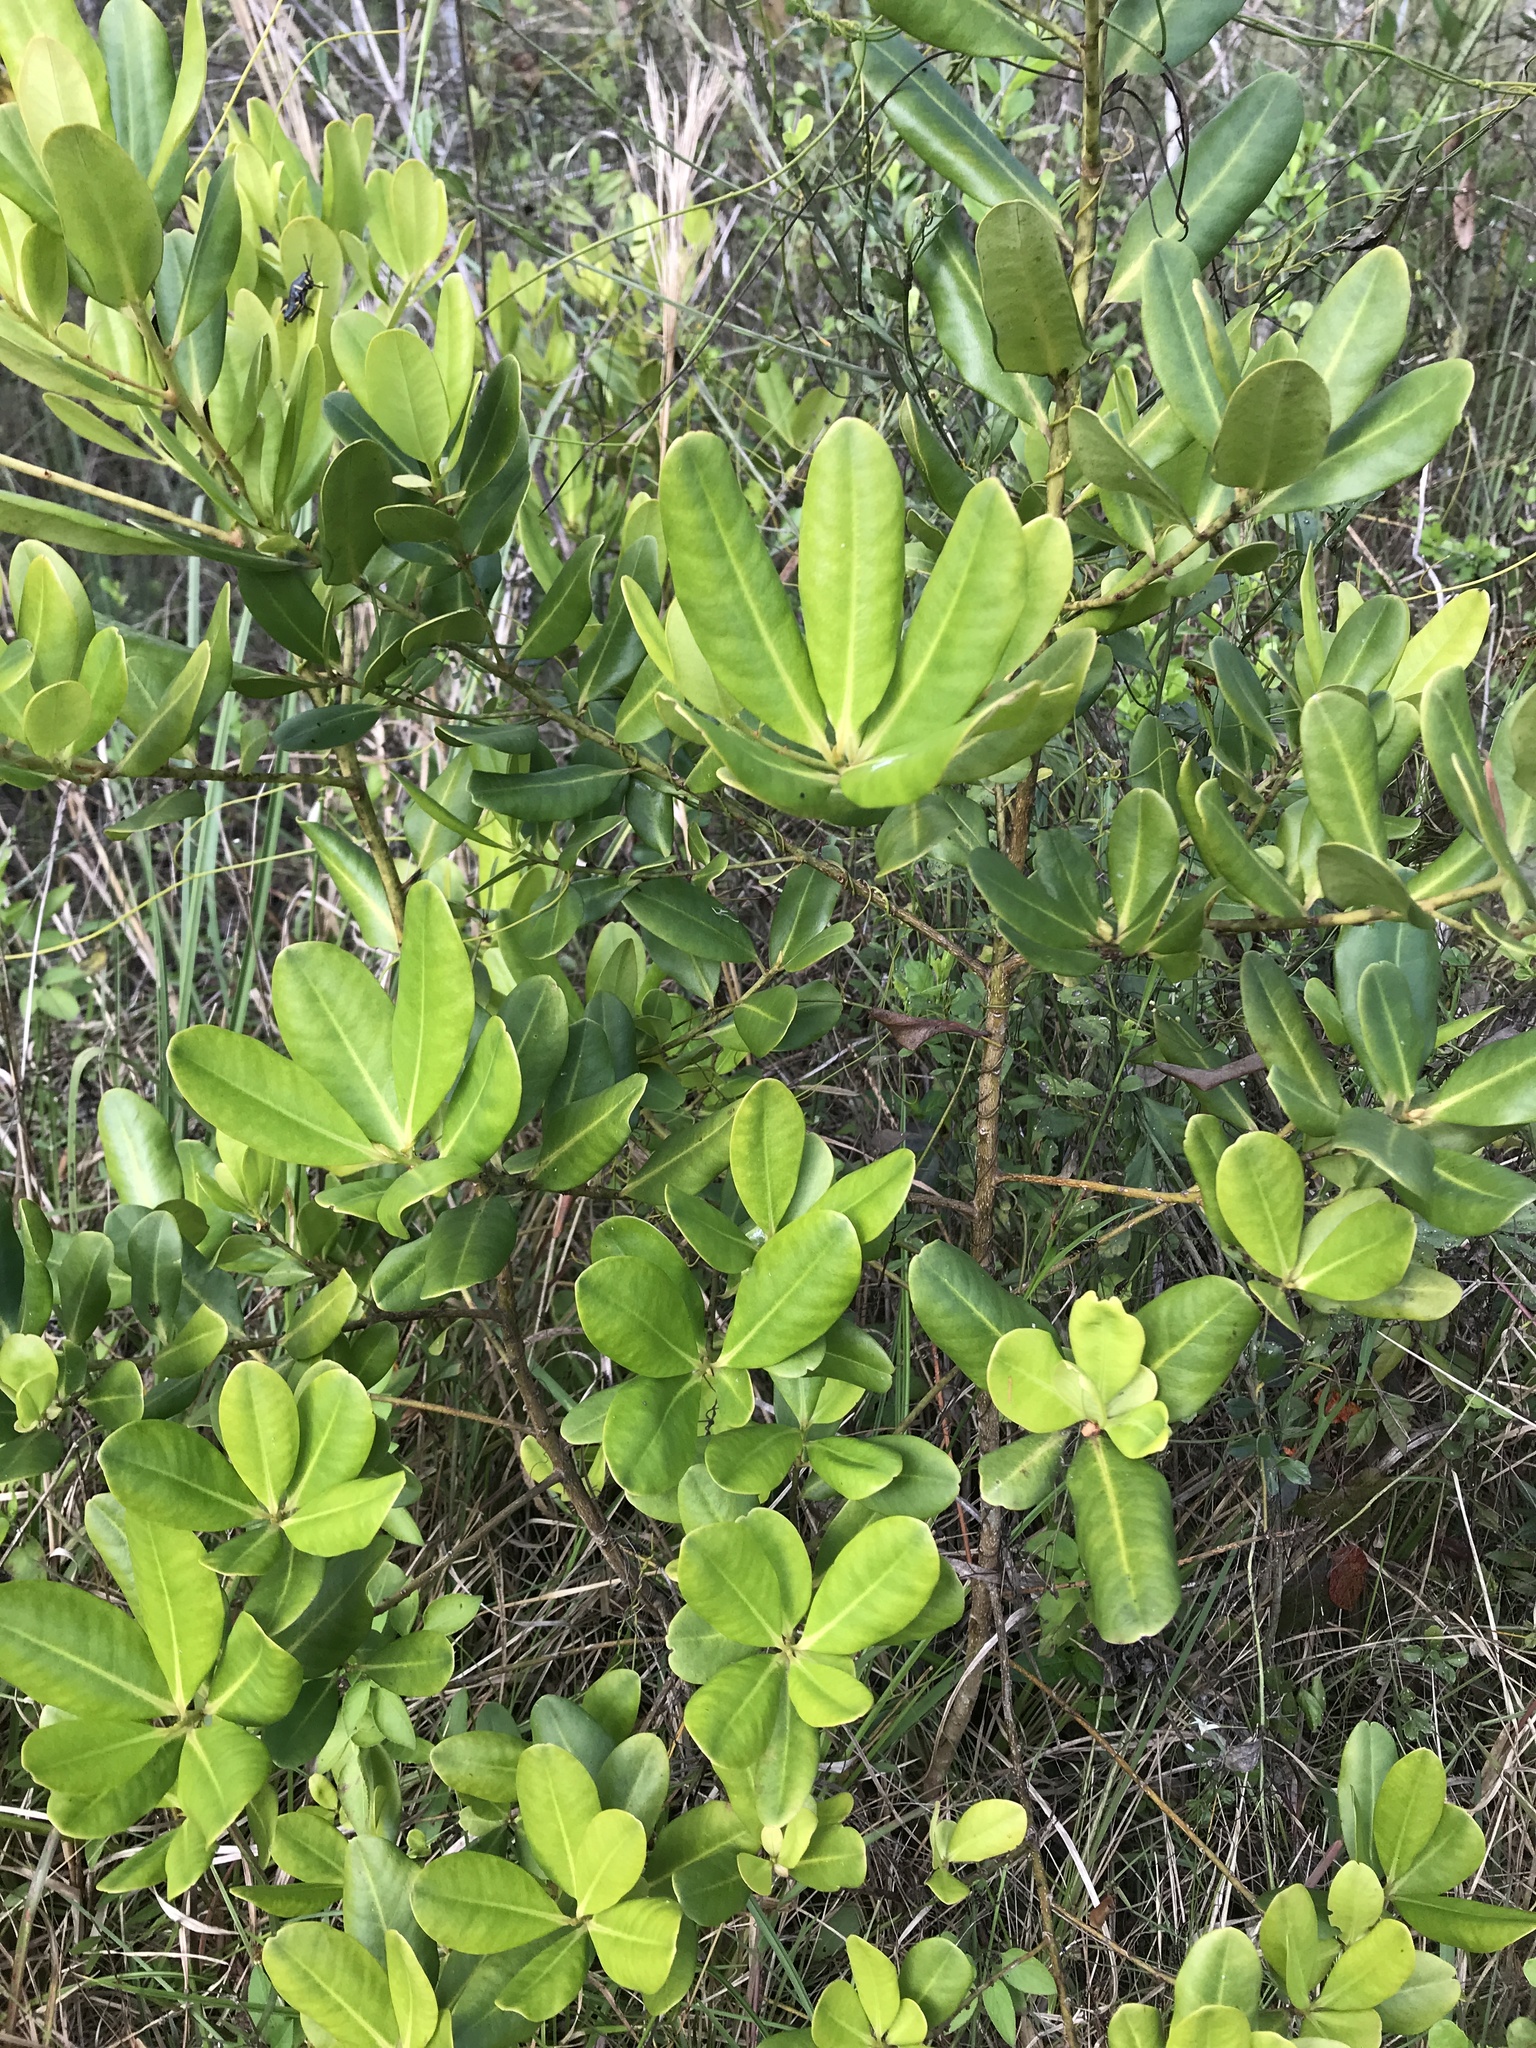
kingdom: Plantae
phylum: Tracheophyta
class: Magnoliopsida
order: Ericales
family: Primulaceae
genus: Myrsine
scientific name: Myrsine floridana
